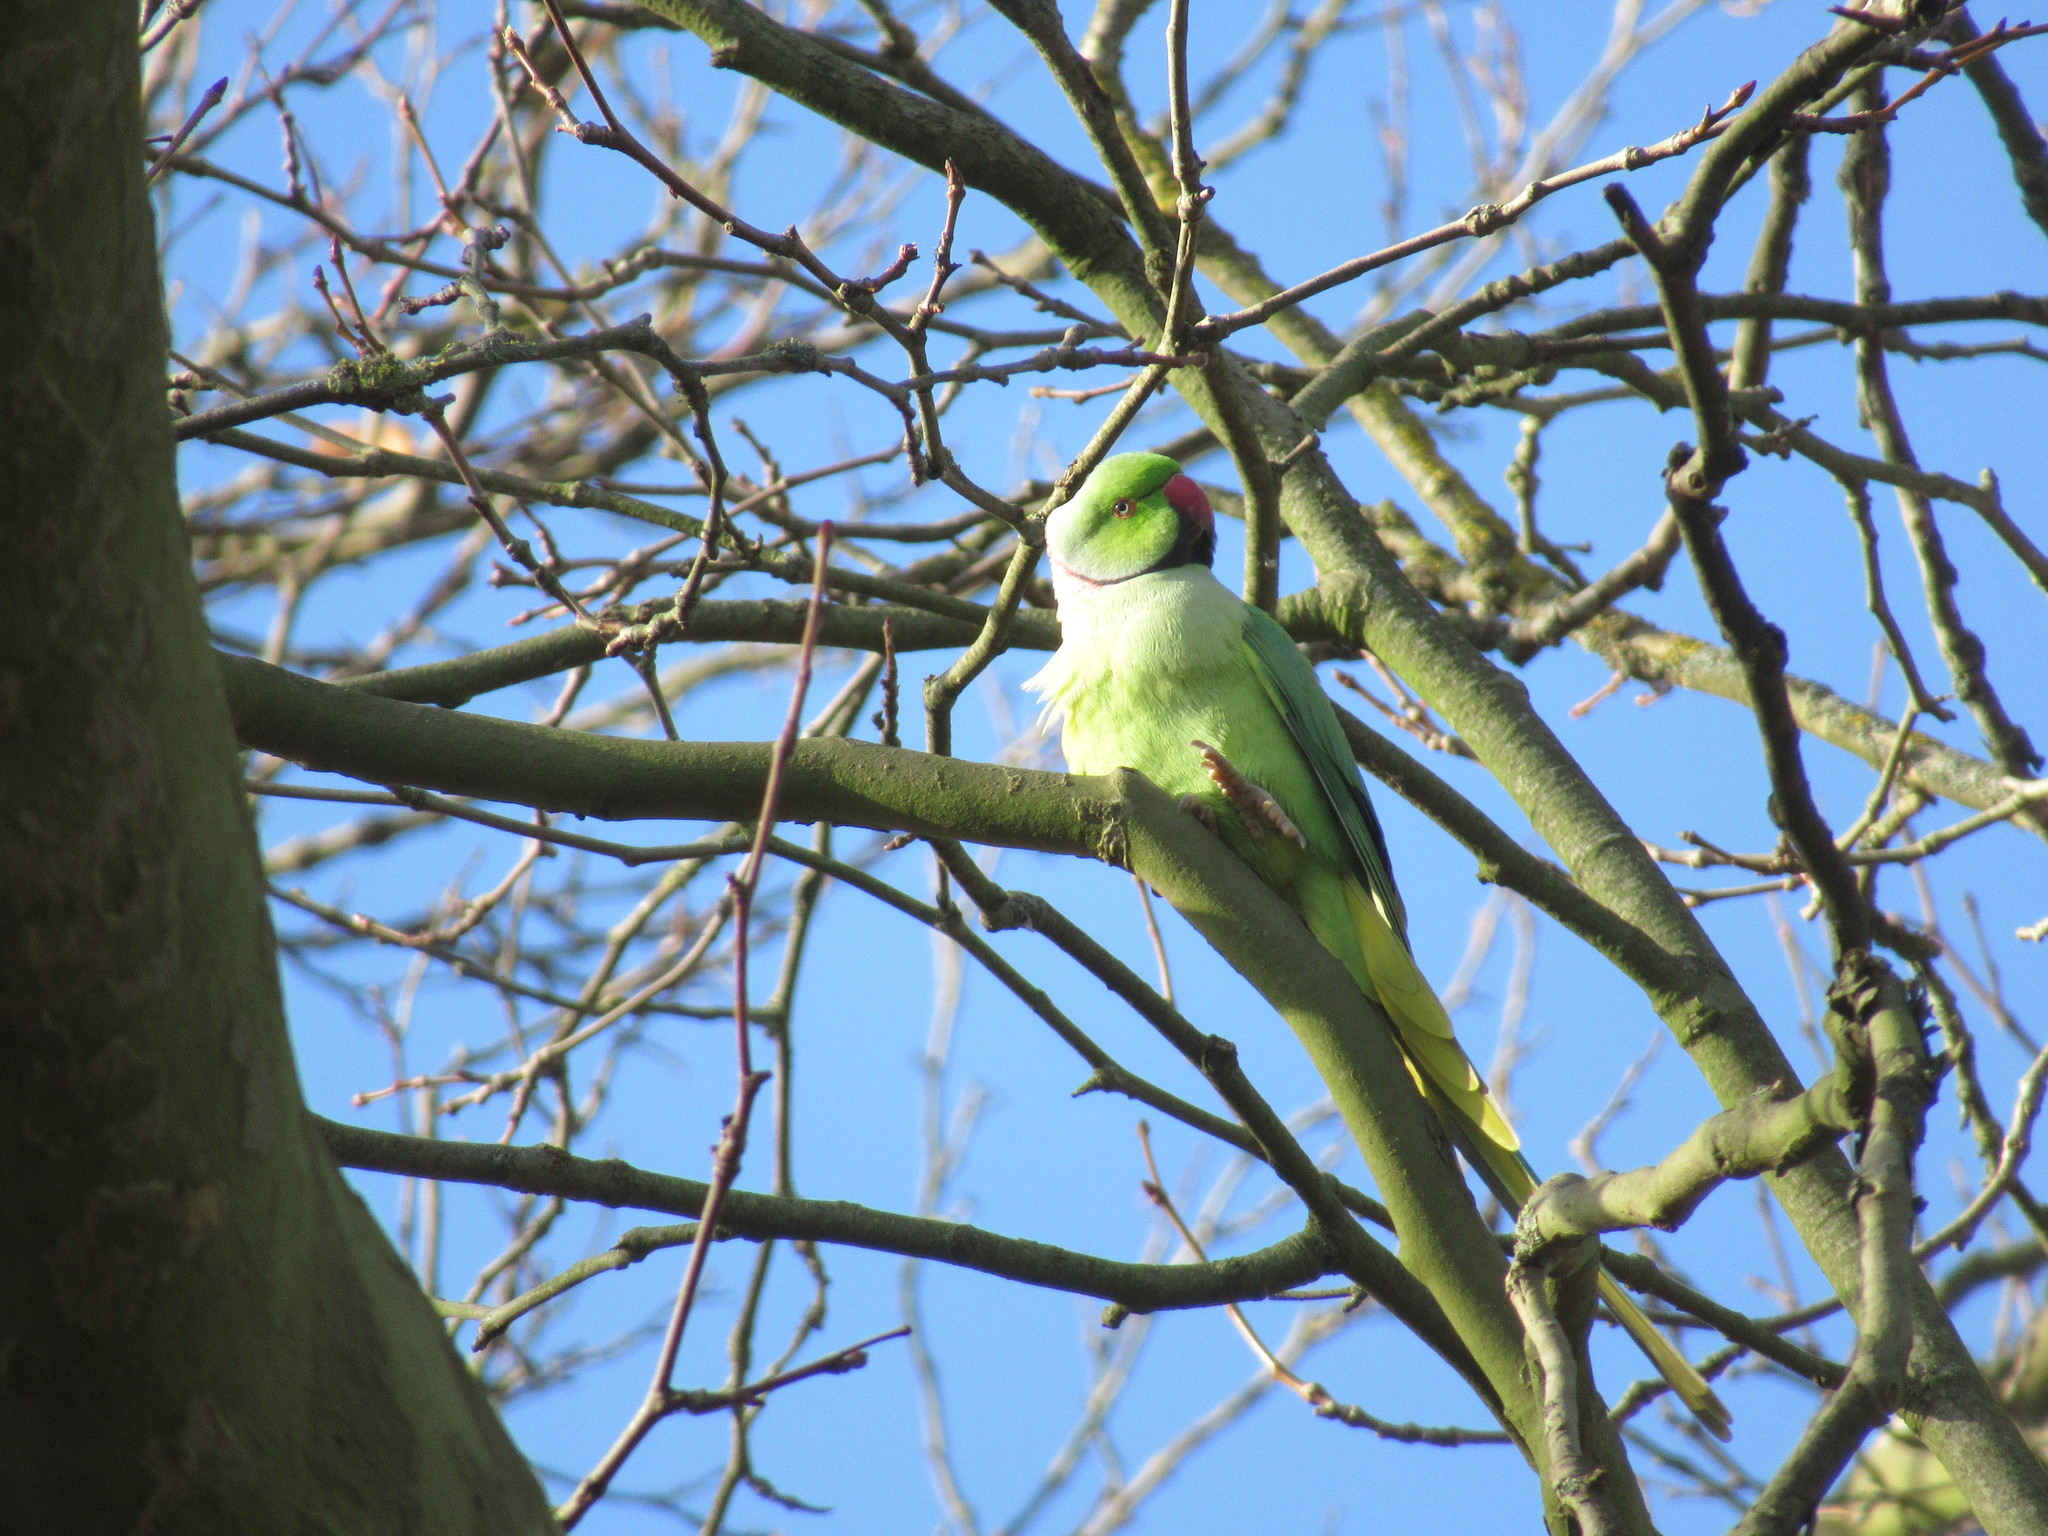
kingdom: Animalia
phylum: Chordata
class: Aves
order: Psittaciformes
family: Psittacidae
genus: Psittacula
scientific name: Psittacula krameri
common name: Rose-ringed parakeet
